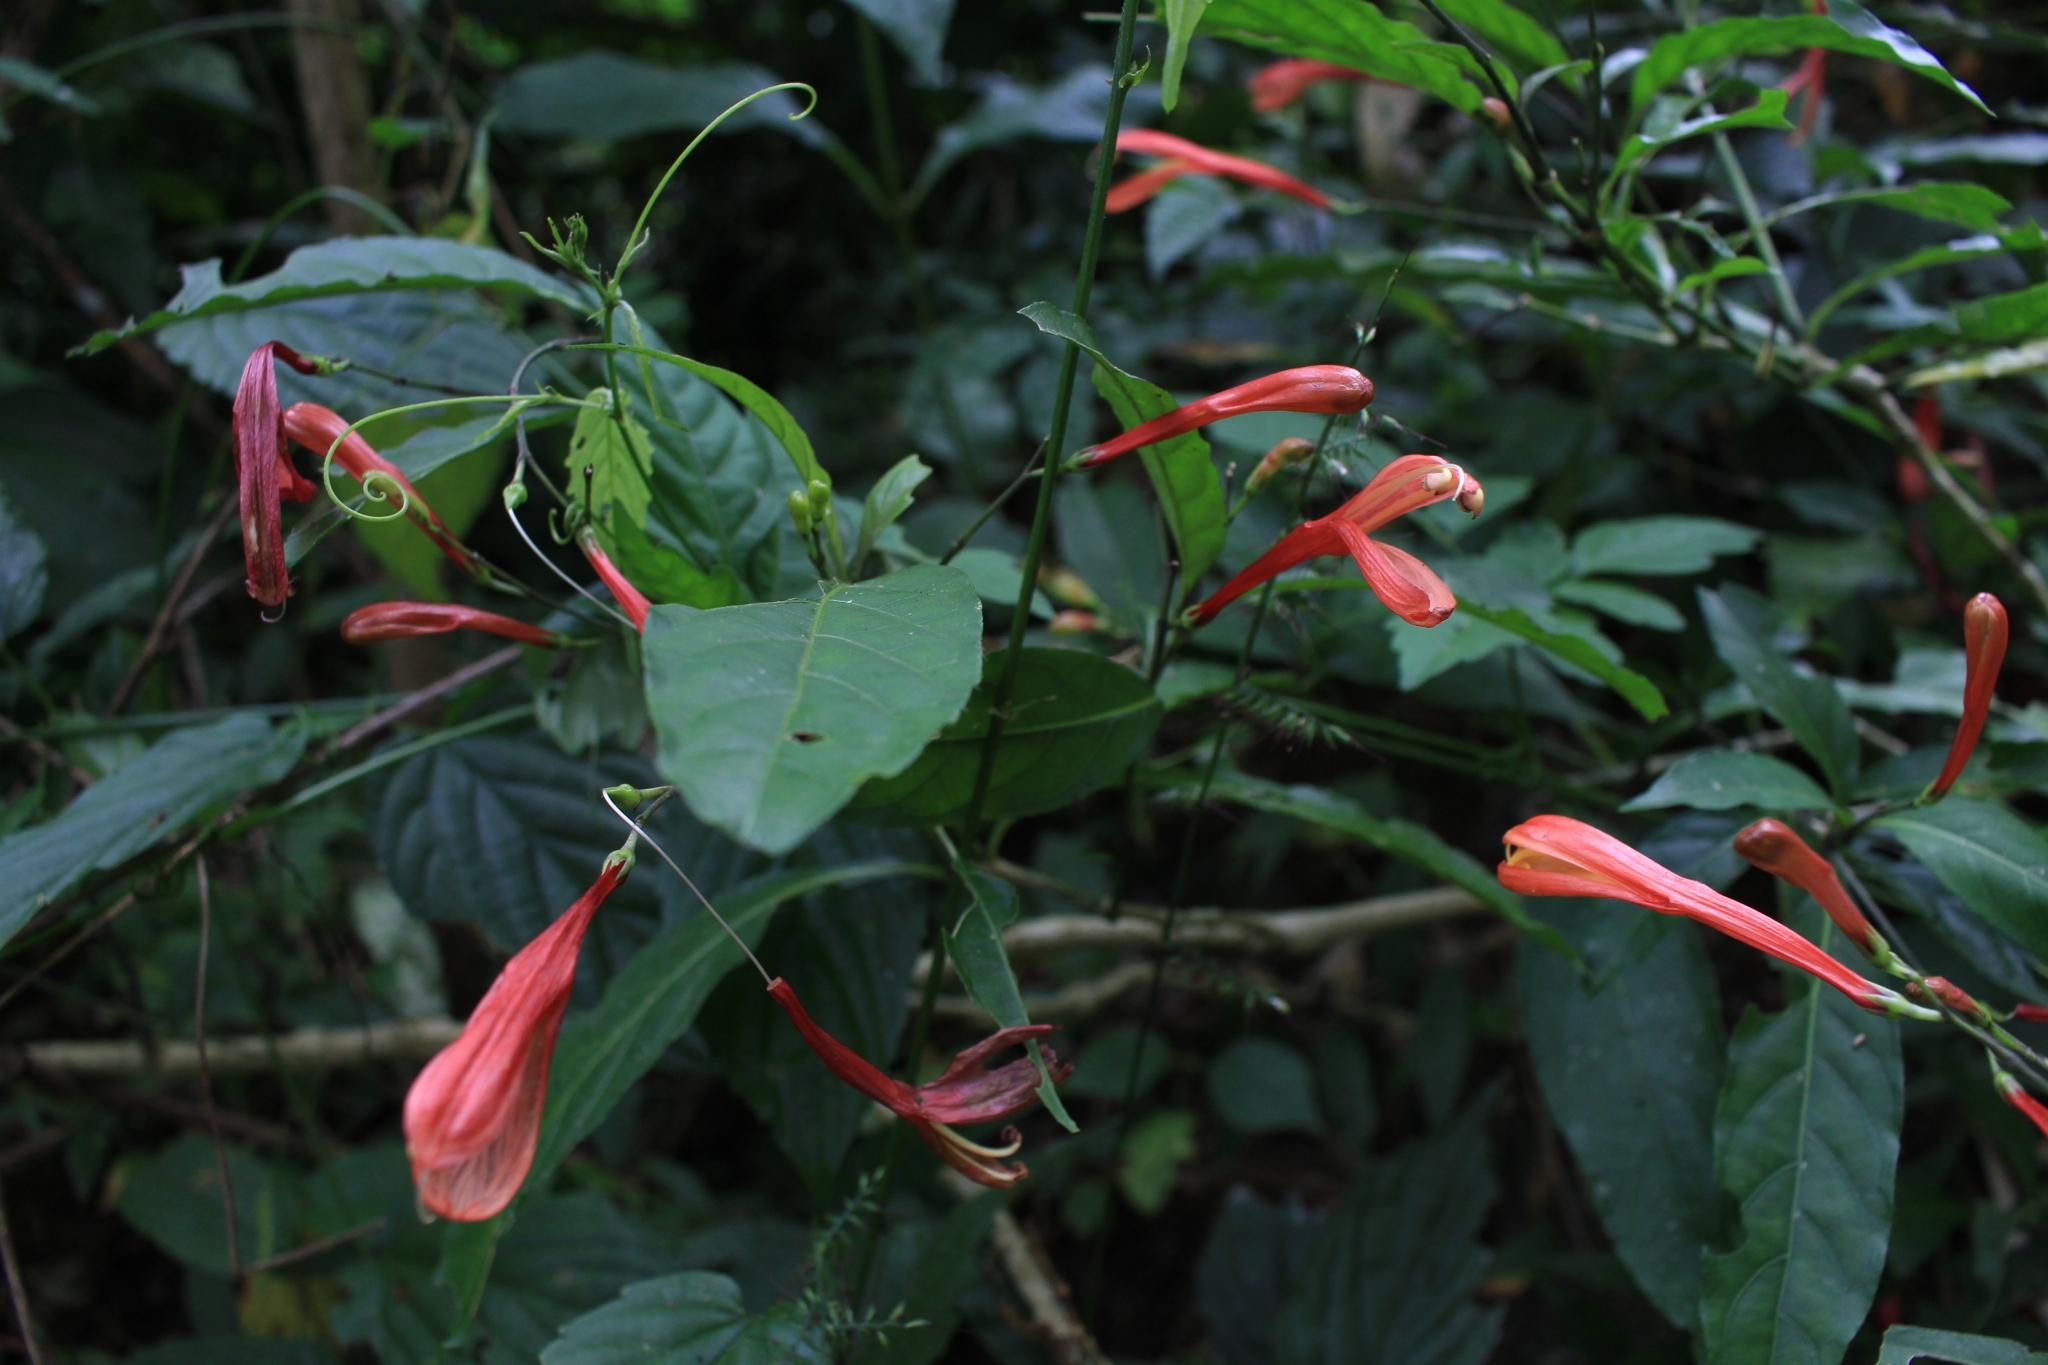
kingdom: Plantae
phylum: Tracheophyta
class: Magnoliopsida
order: Lamiales
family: Acanthaceae
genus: Justicia
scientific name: Justicia macrantha
